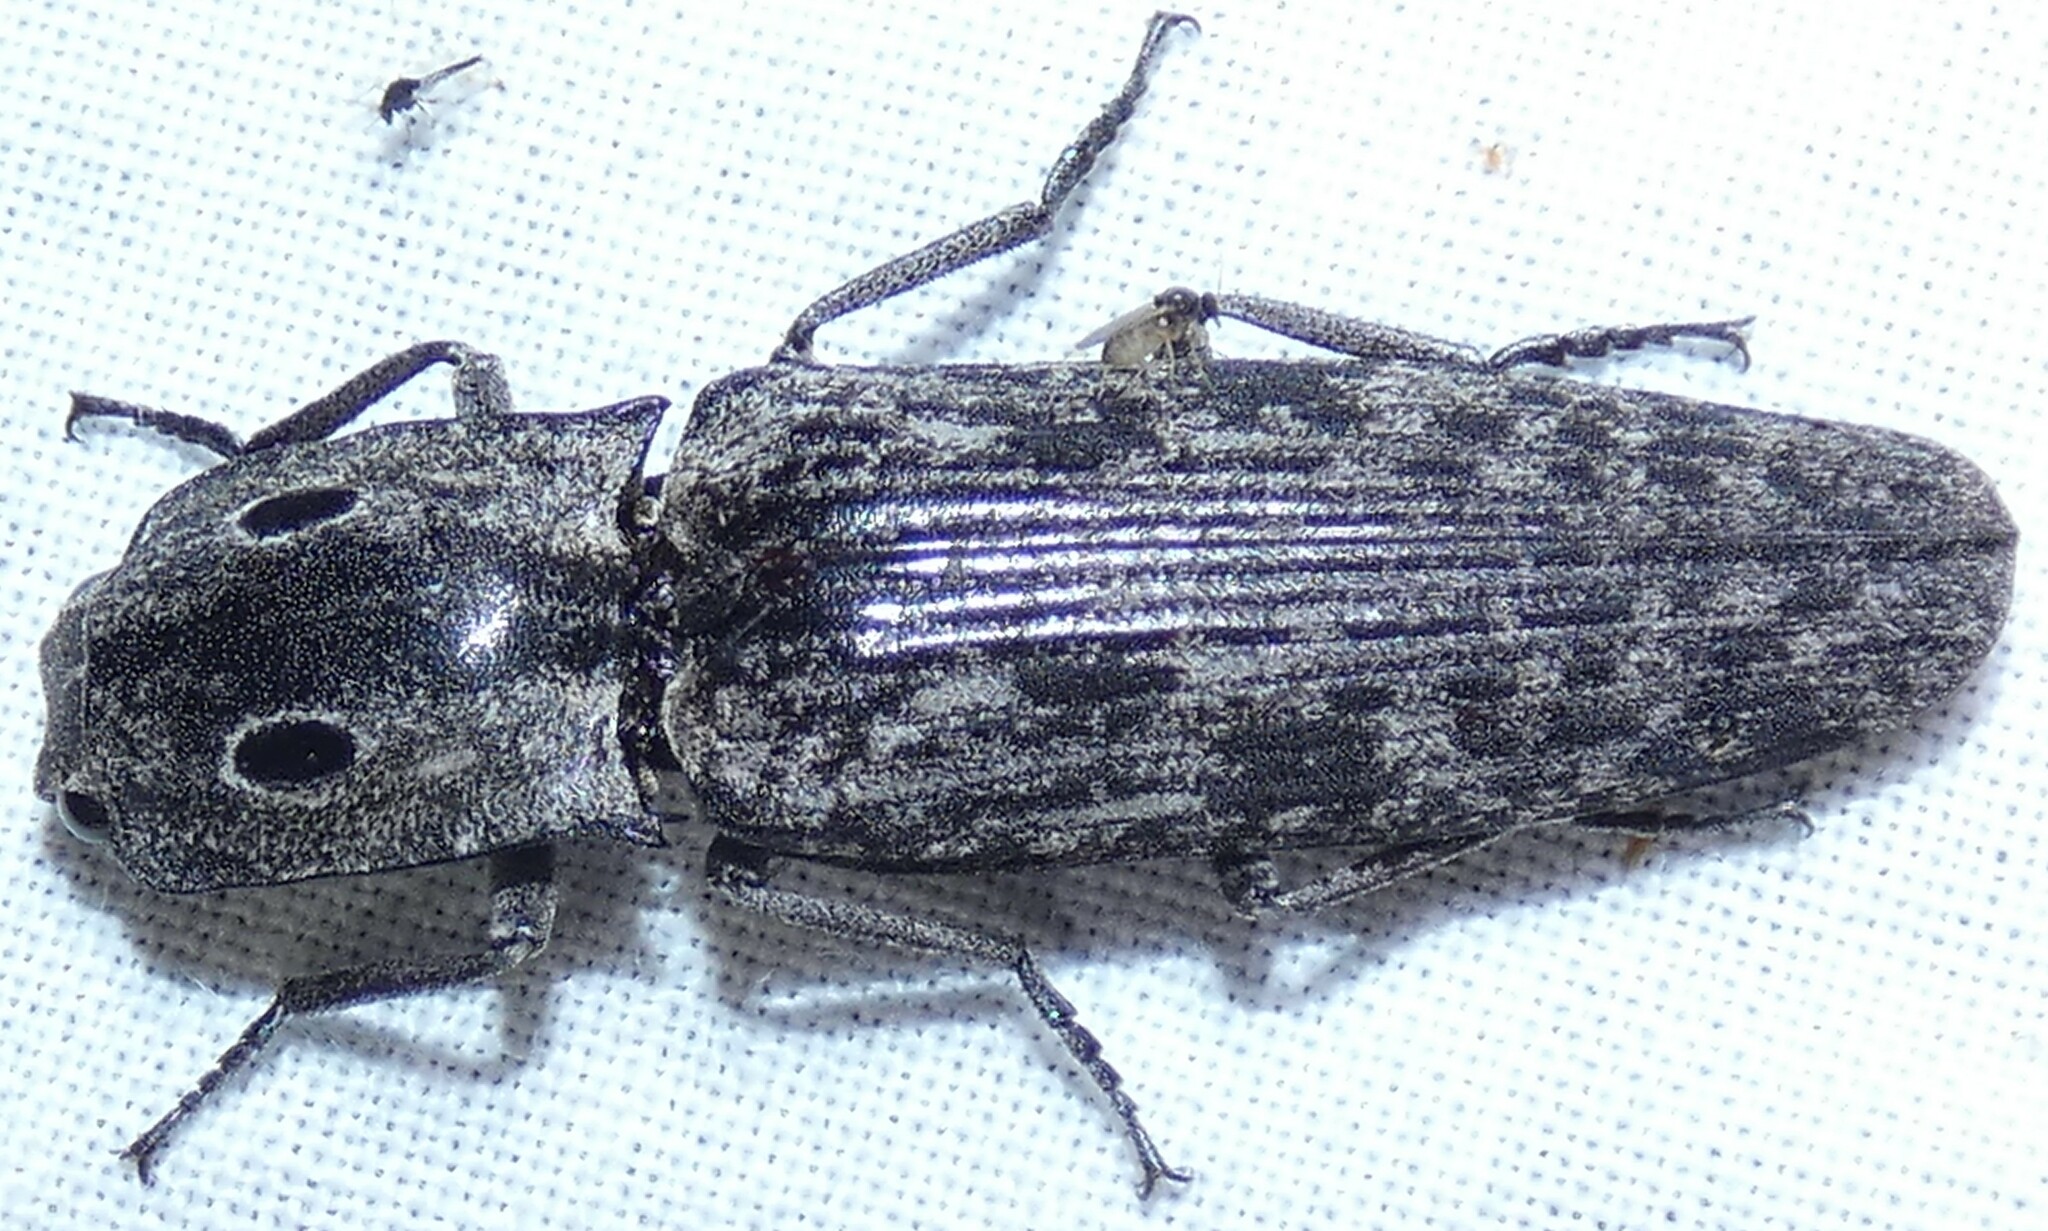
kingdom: Animalia
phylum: Arthropoda
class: Insecta
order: Coleoptera
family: Elateridae
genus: Alaus
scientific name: Alaus myops
